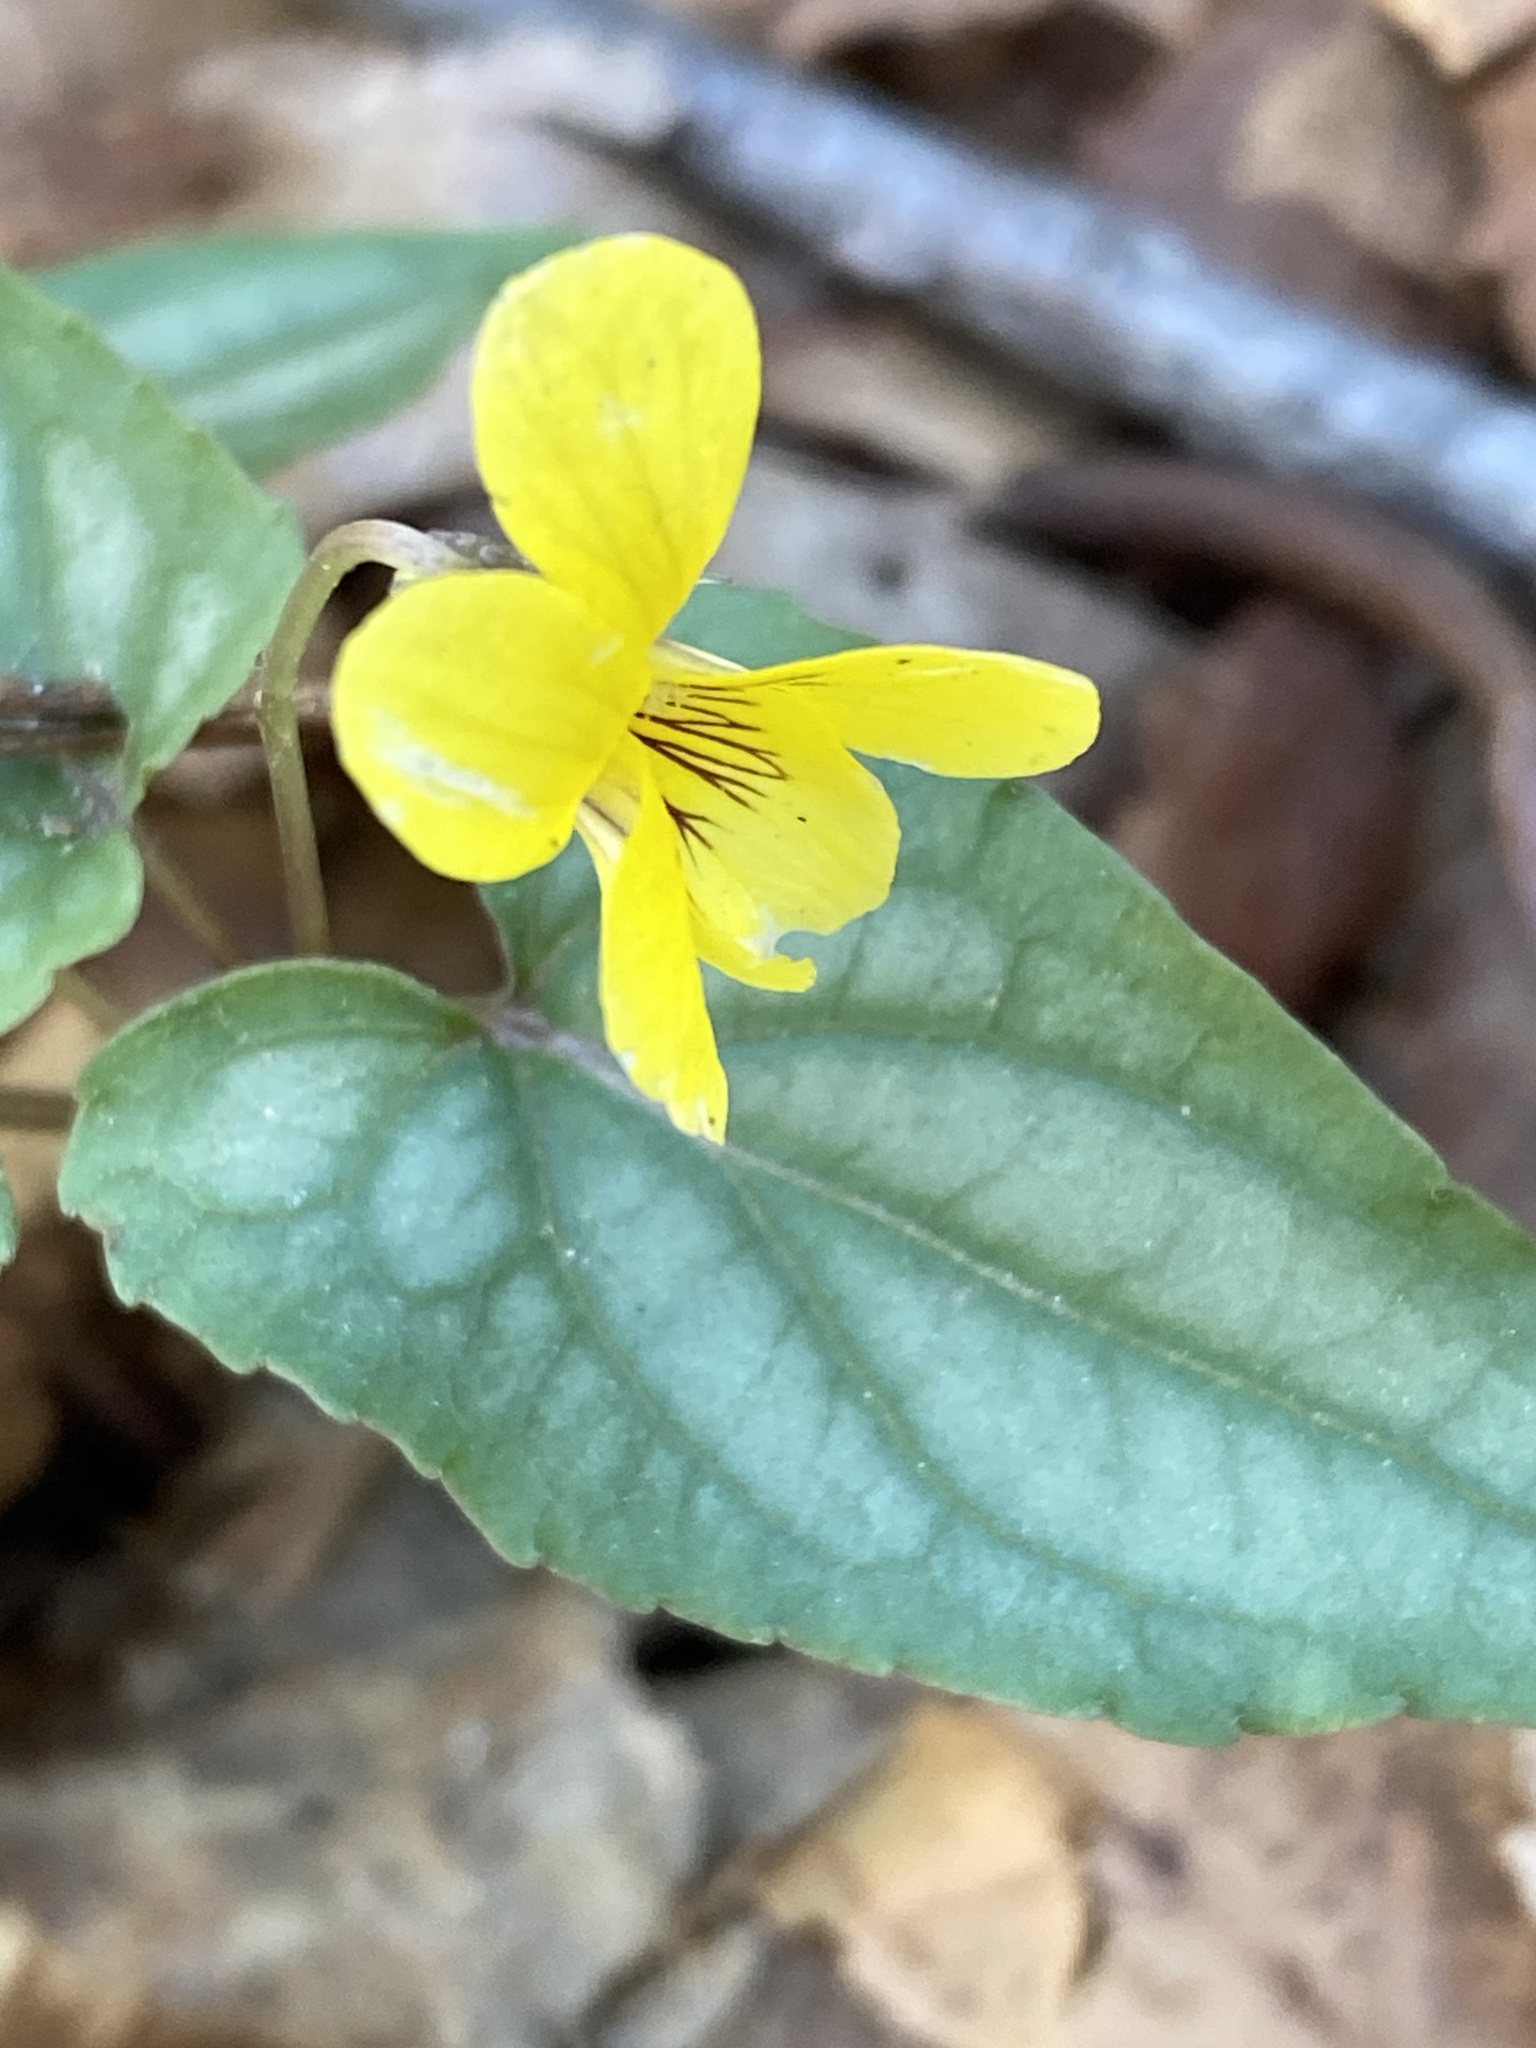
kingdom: Plantae
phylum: Tracheophyta
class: Magnoliopsida
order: Malpighiales
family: Violaceae
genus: Viola
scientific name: Viola hastata
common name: Spear-leaf violet
